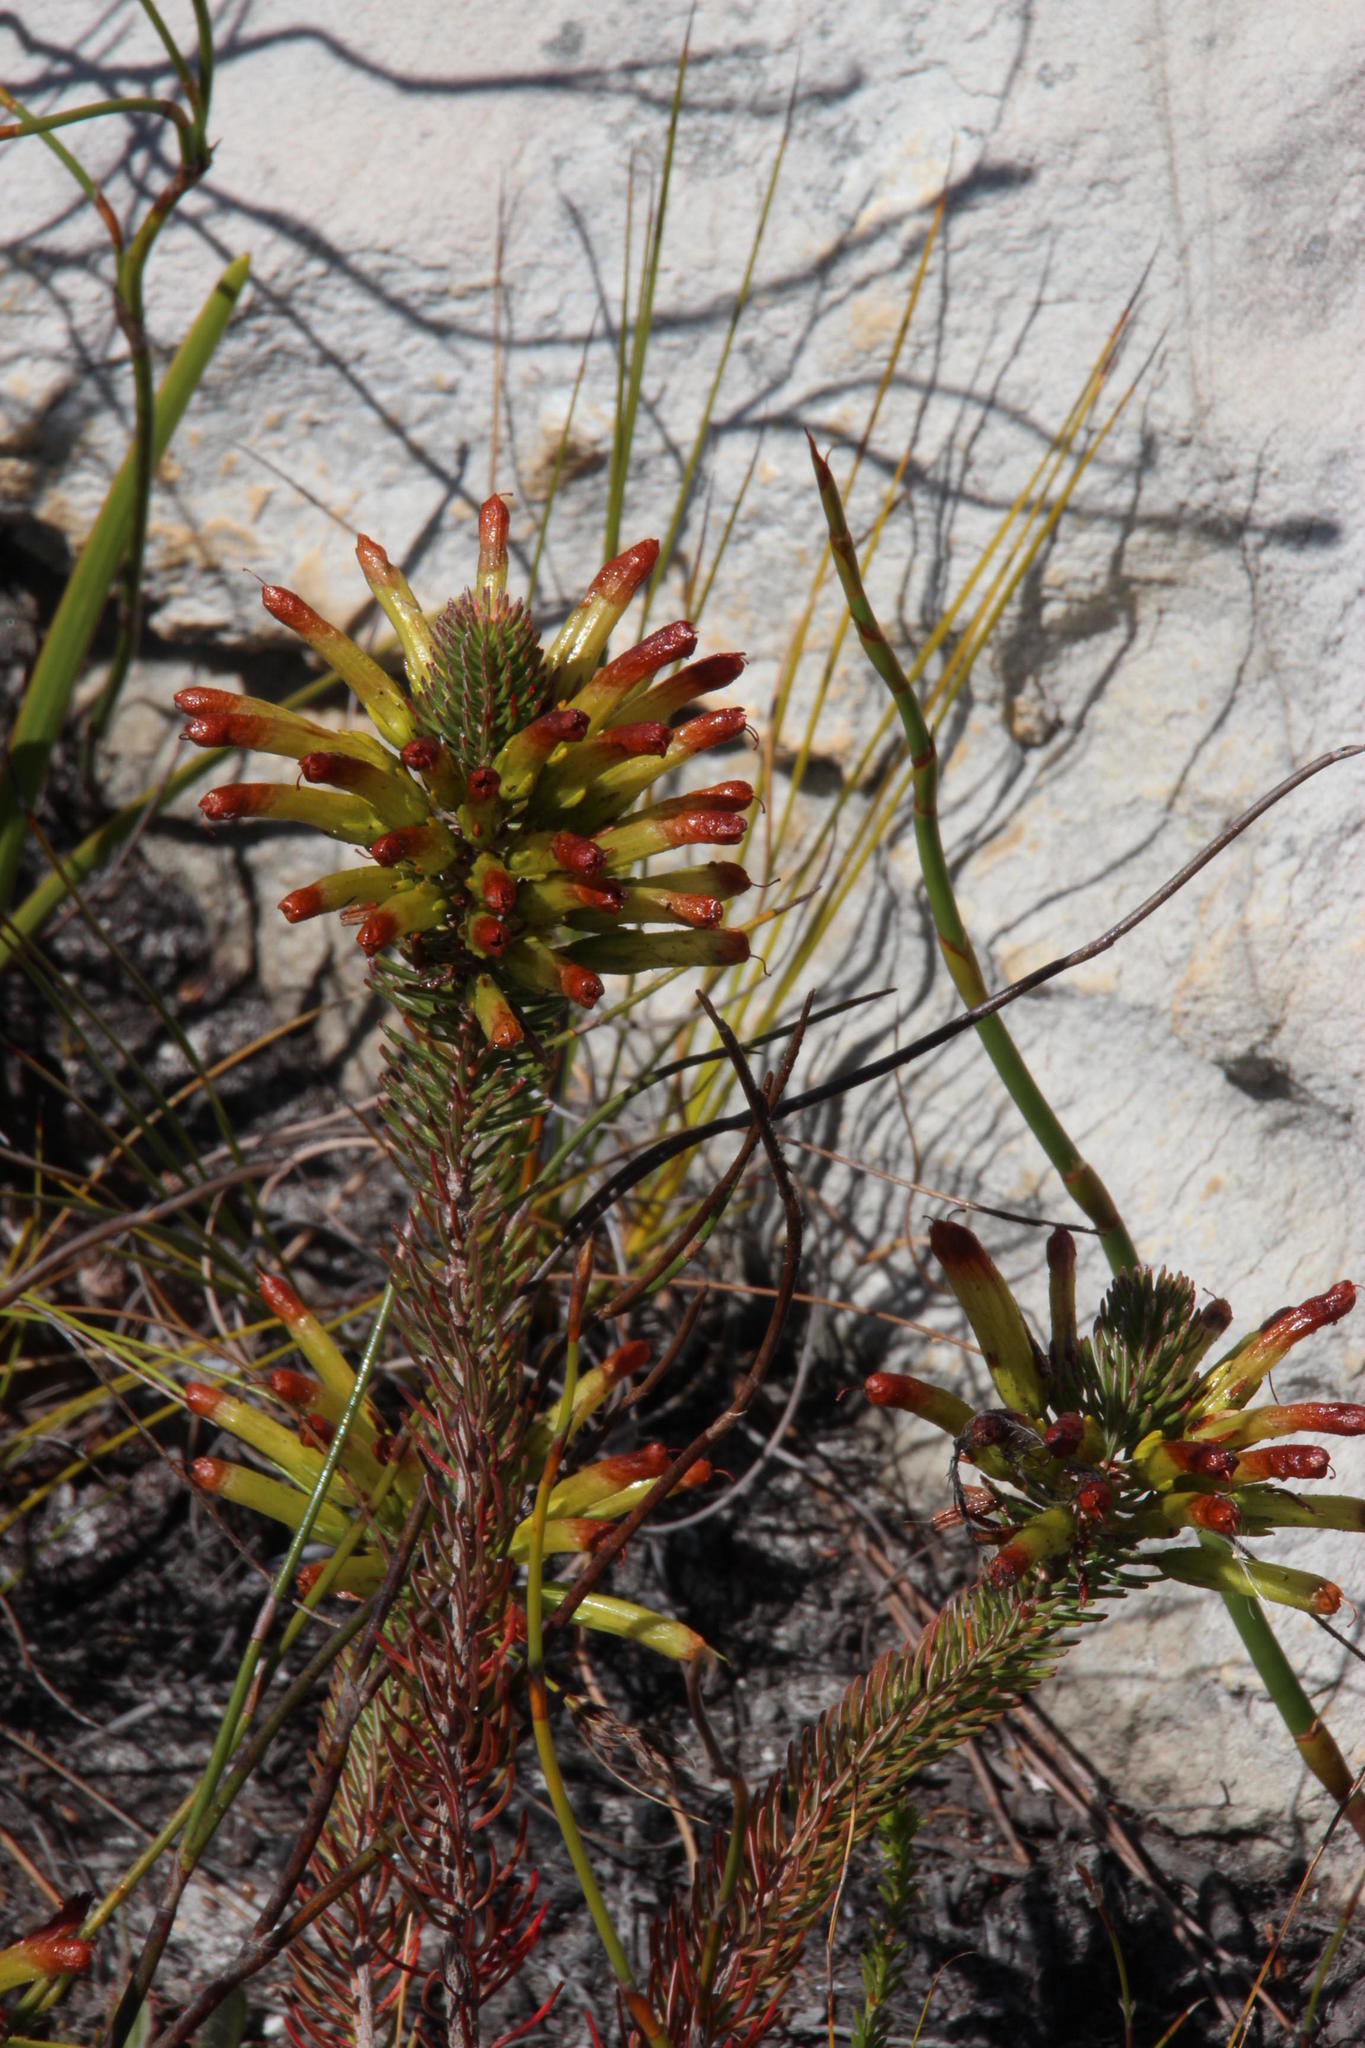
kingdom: Plantae
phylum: Tracheophyta
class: Magnoliopsida
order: Ericales
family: Ericaceae
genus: Erica
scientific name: Erica thomae
